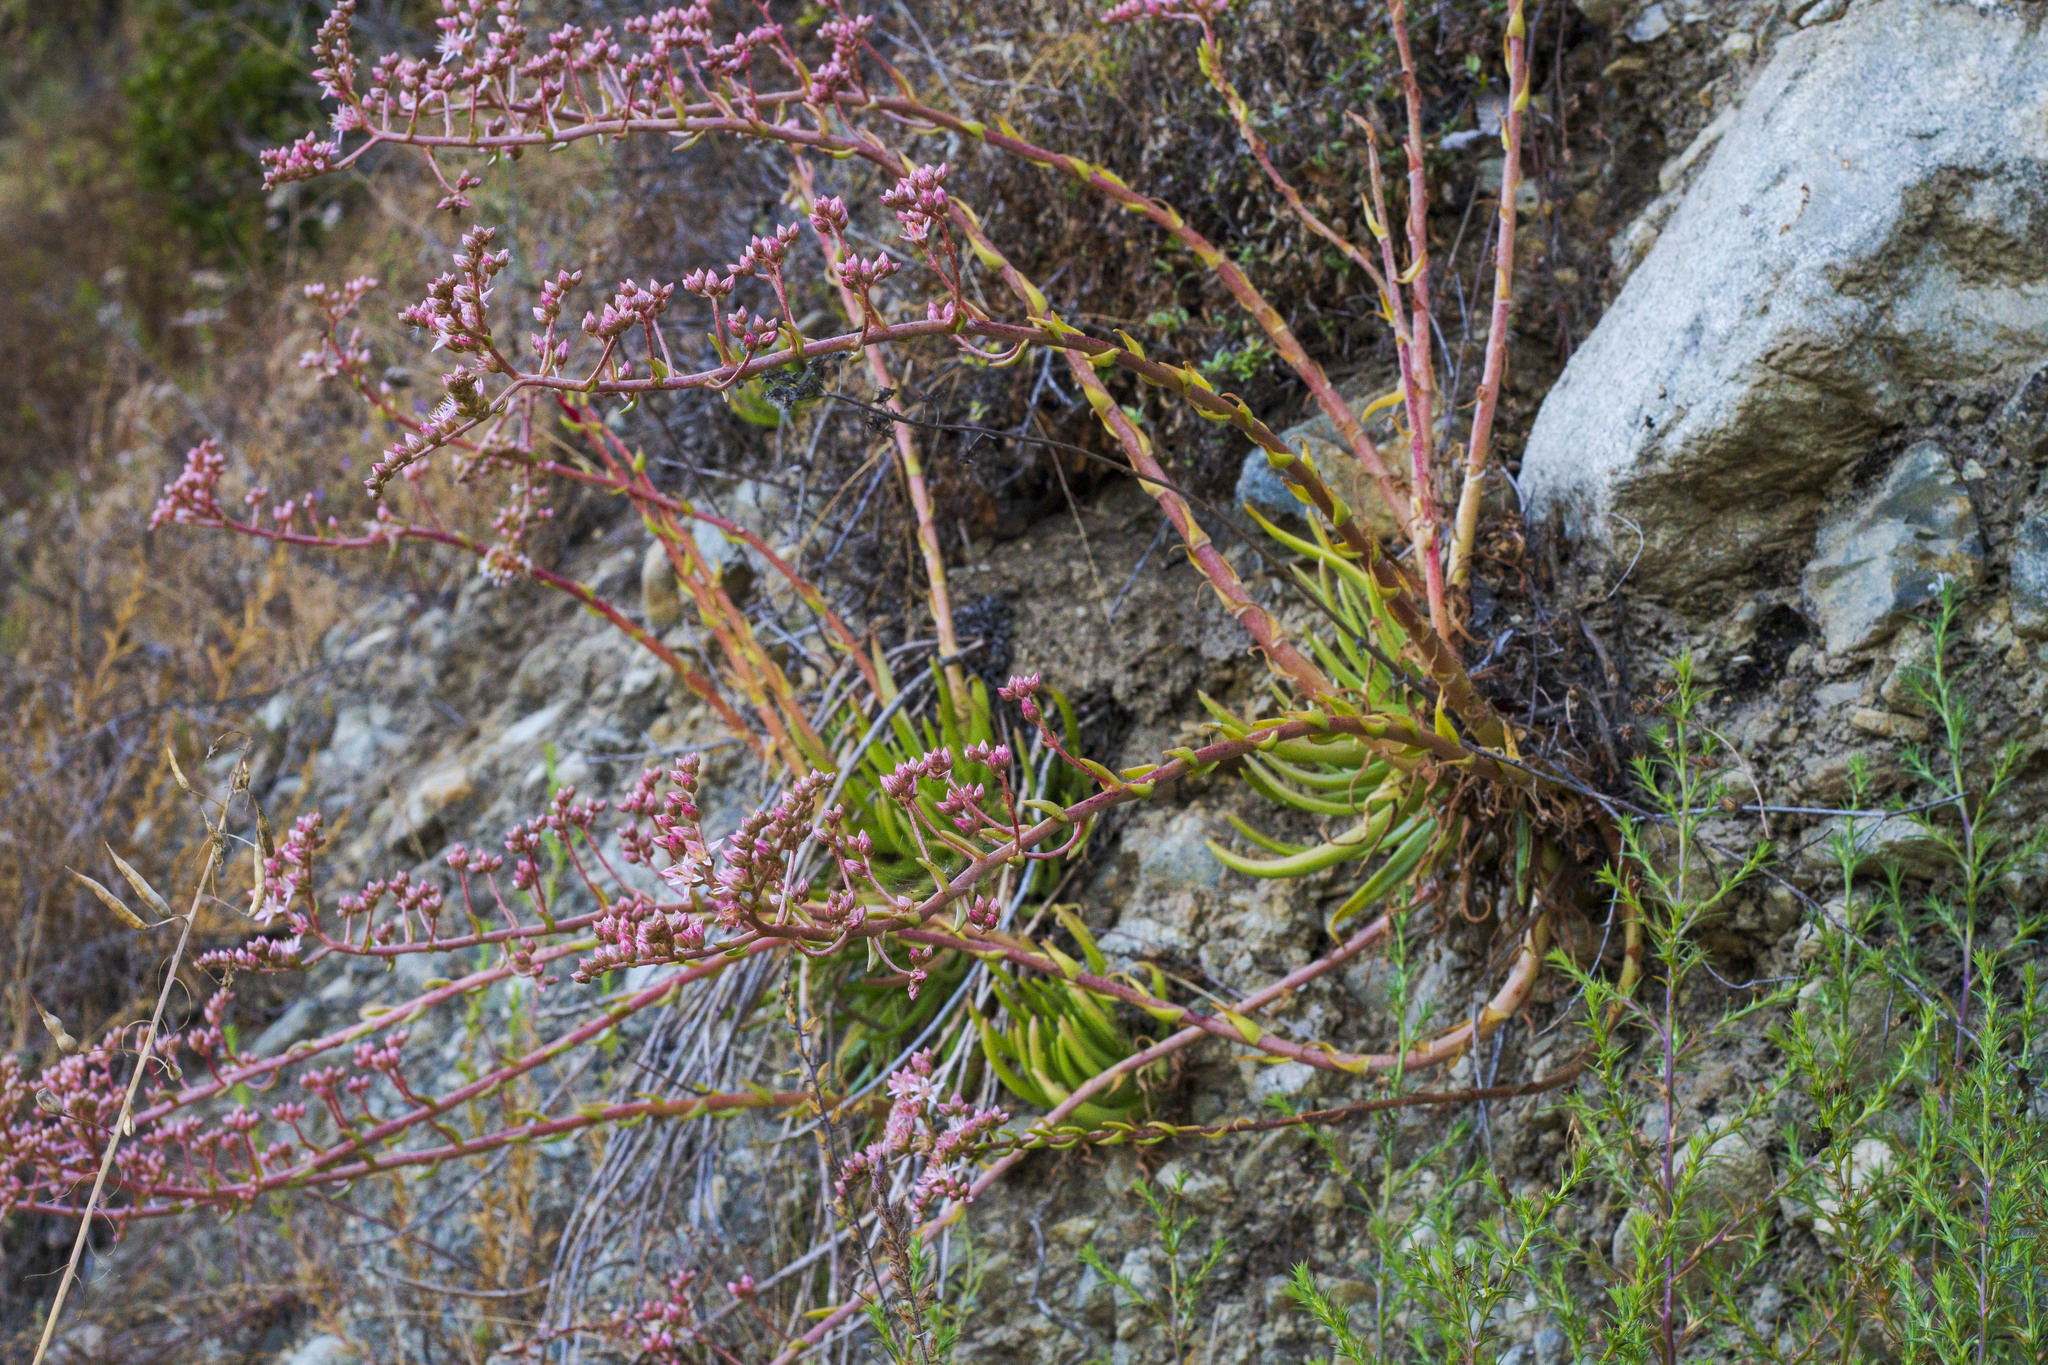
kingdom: Plantae
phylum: Tracheophyta
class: Magnoliopsida
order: Saxifragales
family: Crassulaceae
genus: Dudleya
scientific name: Dudleya viscida
